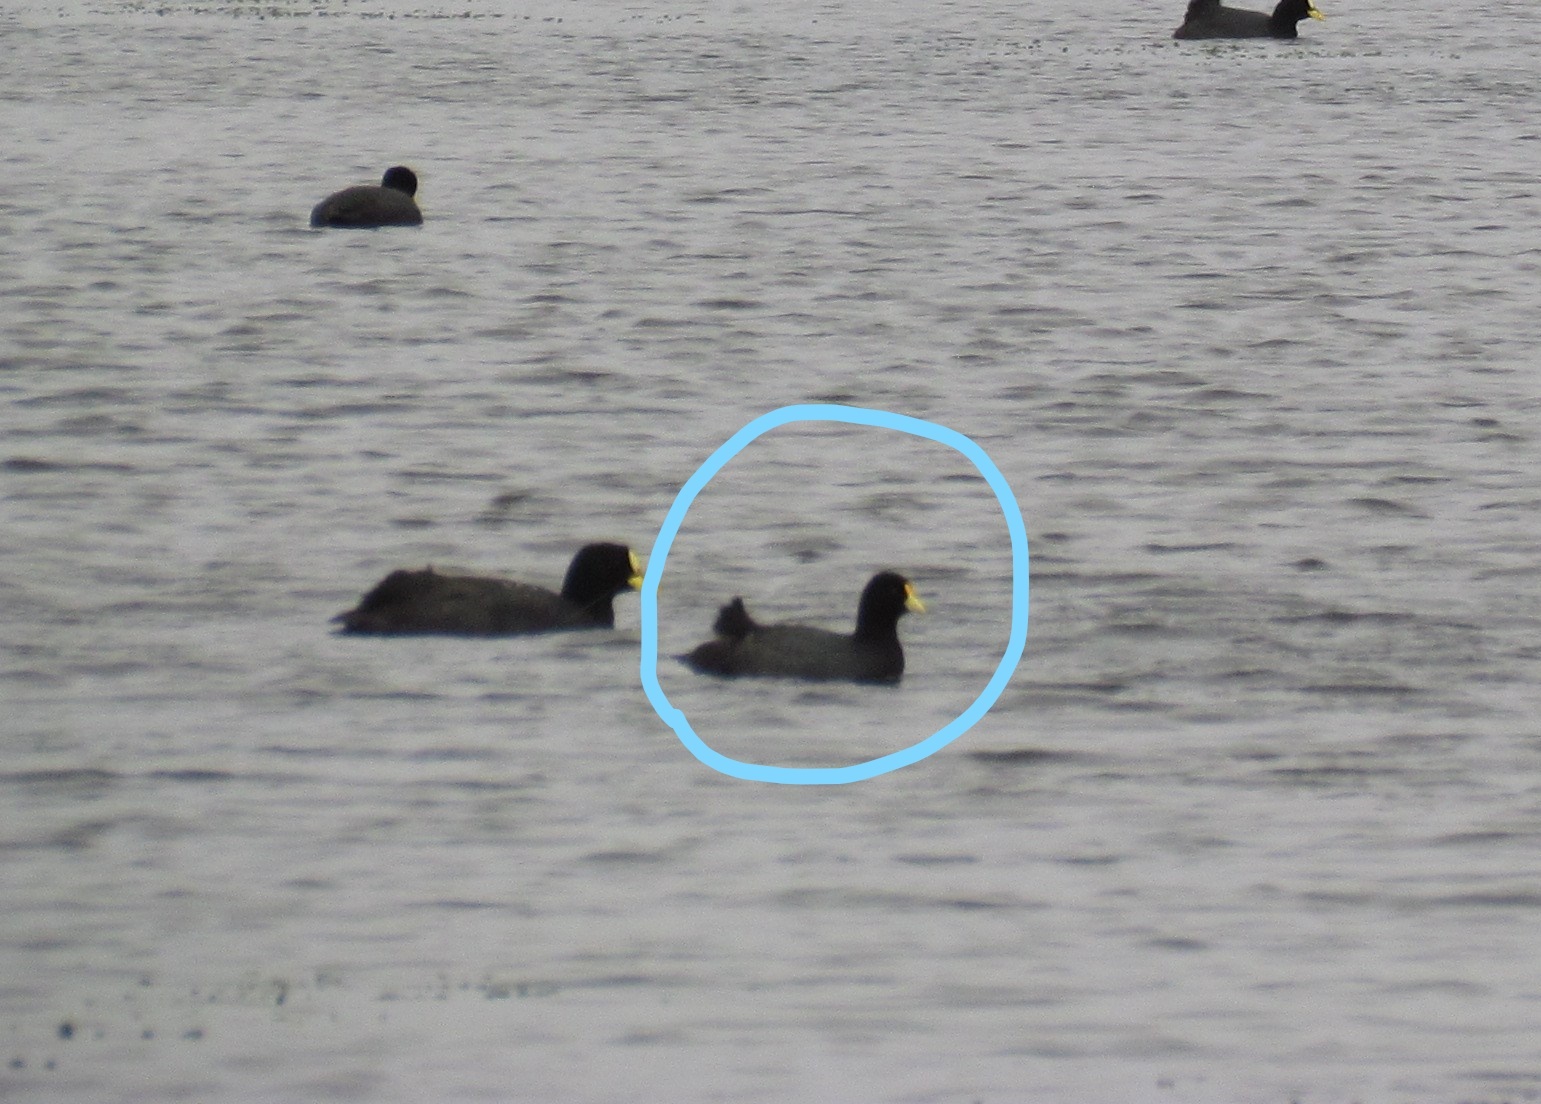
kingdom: Animalia
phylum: Chordata
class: Aves
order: Gruiformes
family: Rallidae
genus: Fulica
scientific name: Fulica leucoptera
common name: White-winged coot
